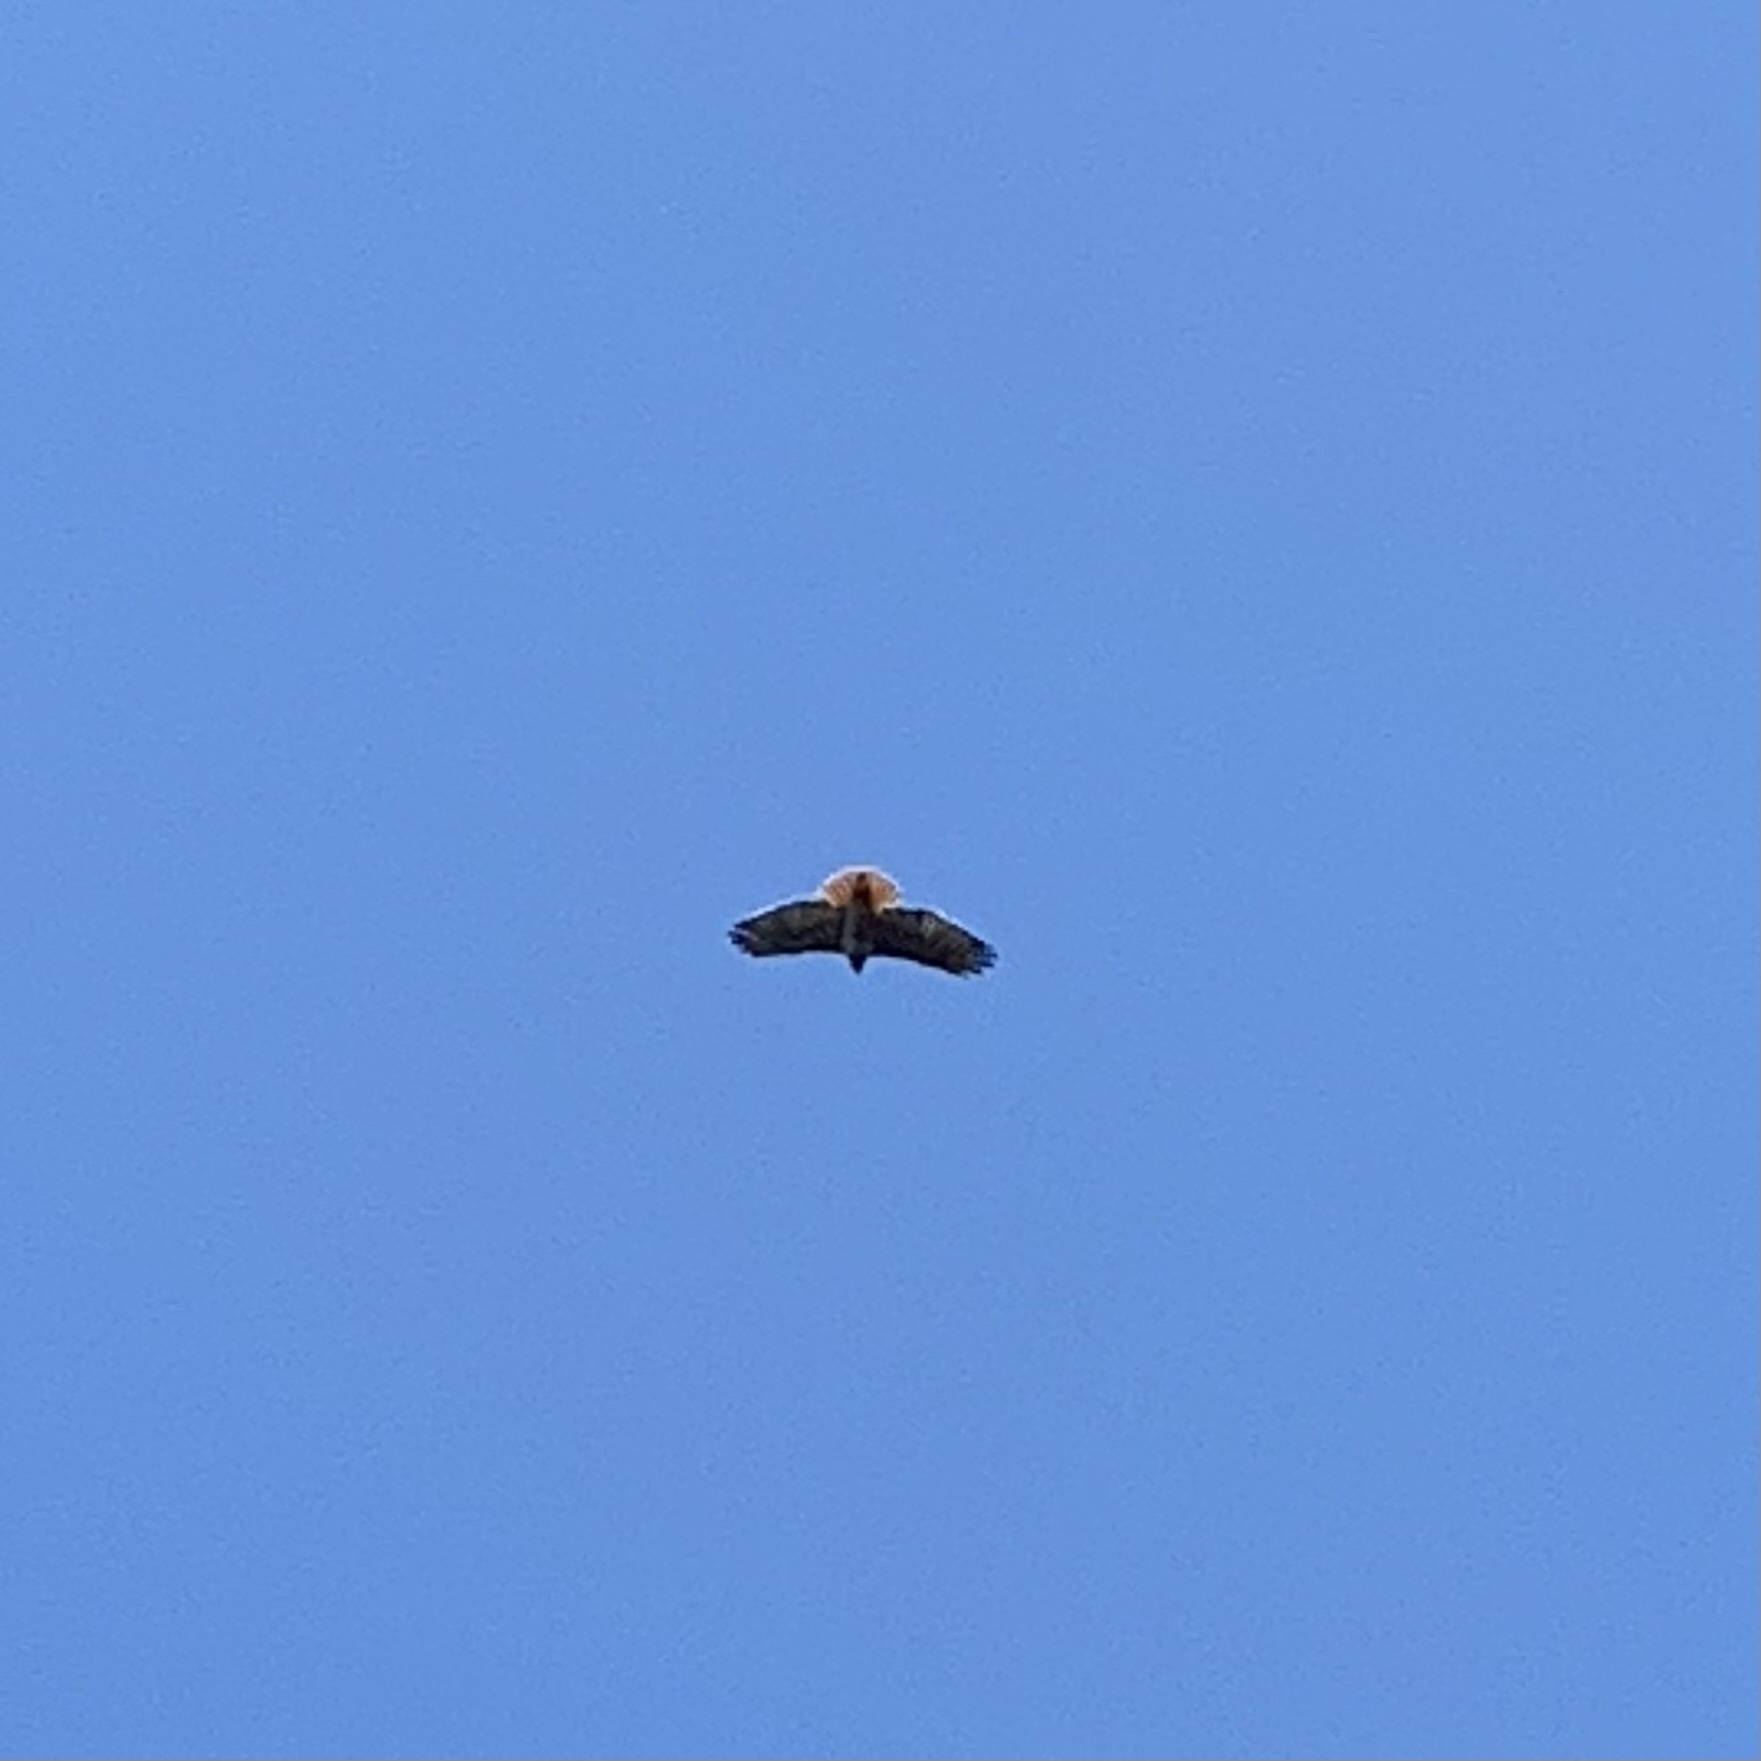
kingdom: Animalia
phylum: Chordata
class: Aves
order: Accipitriformes
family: Accipitridae
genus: Buteo
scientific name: Buteo jamaicensis
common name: Red-tailed hawk
